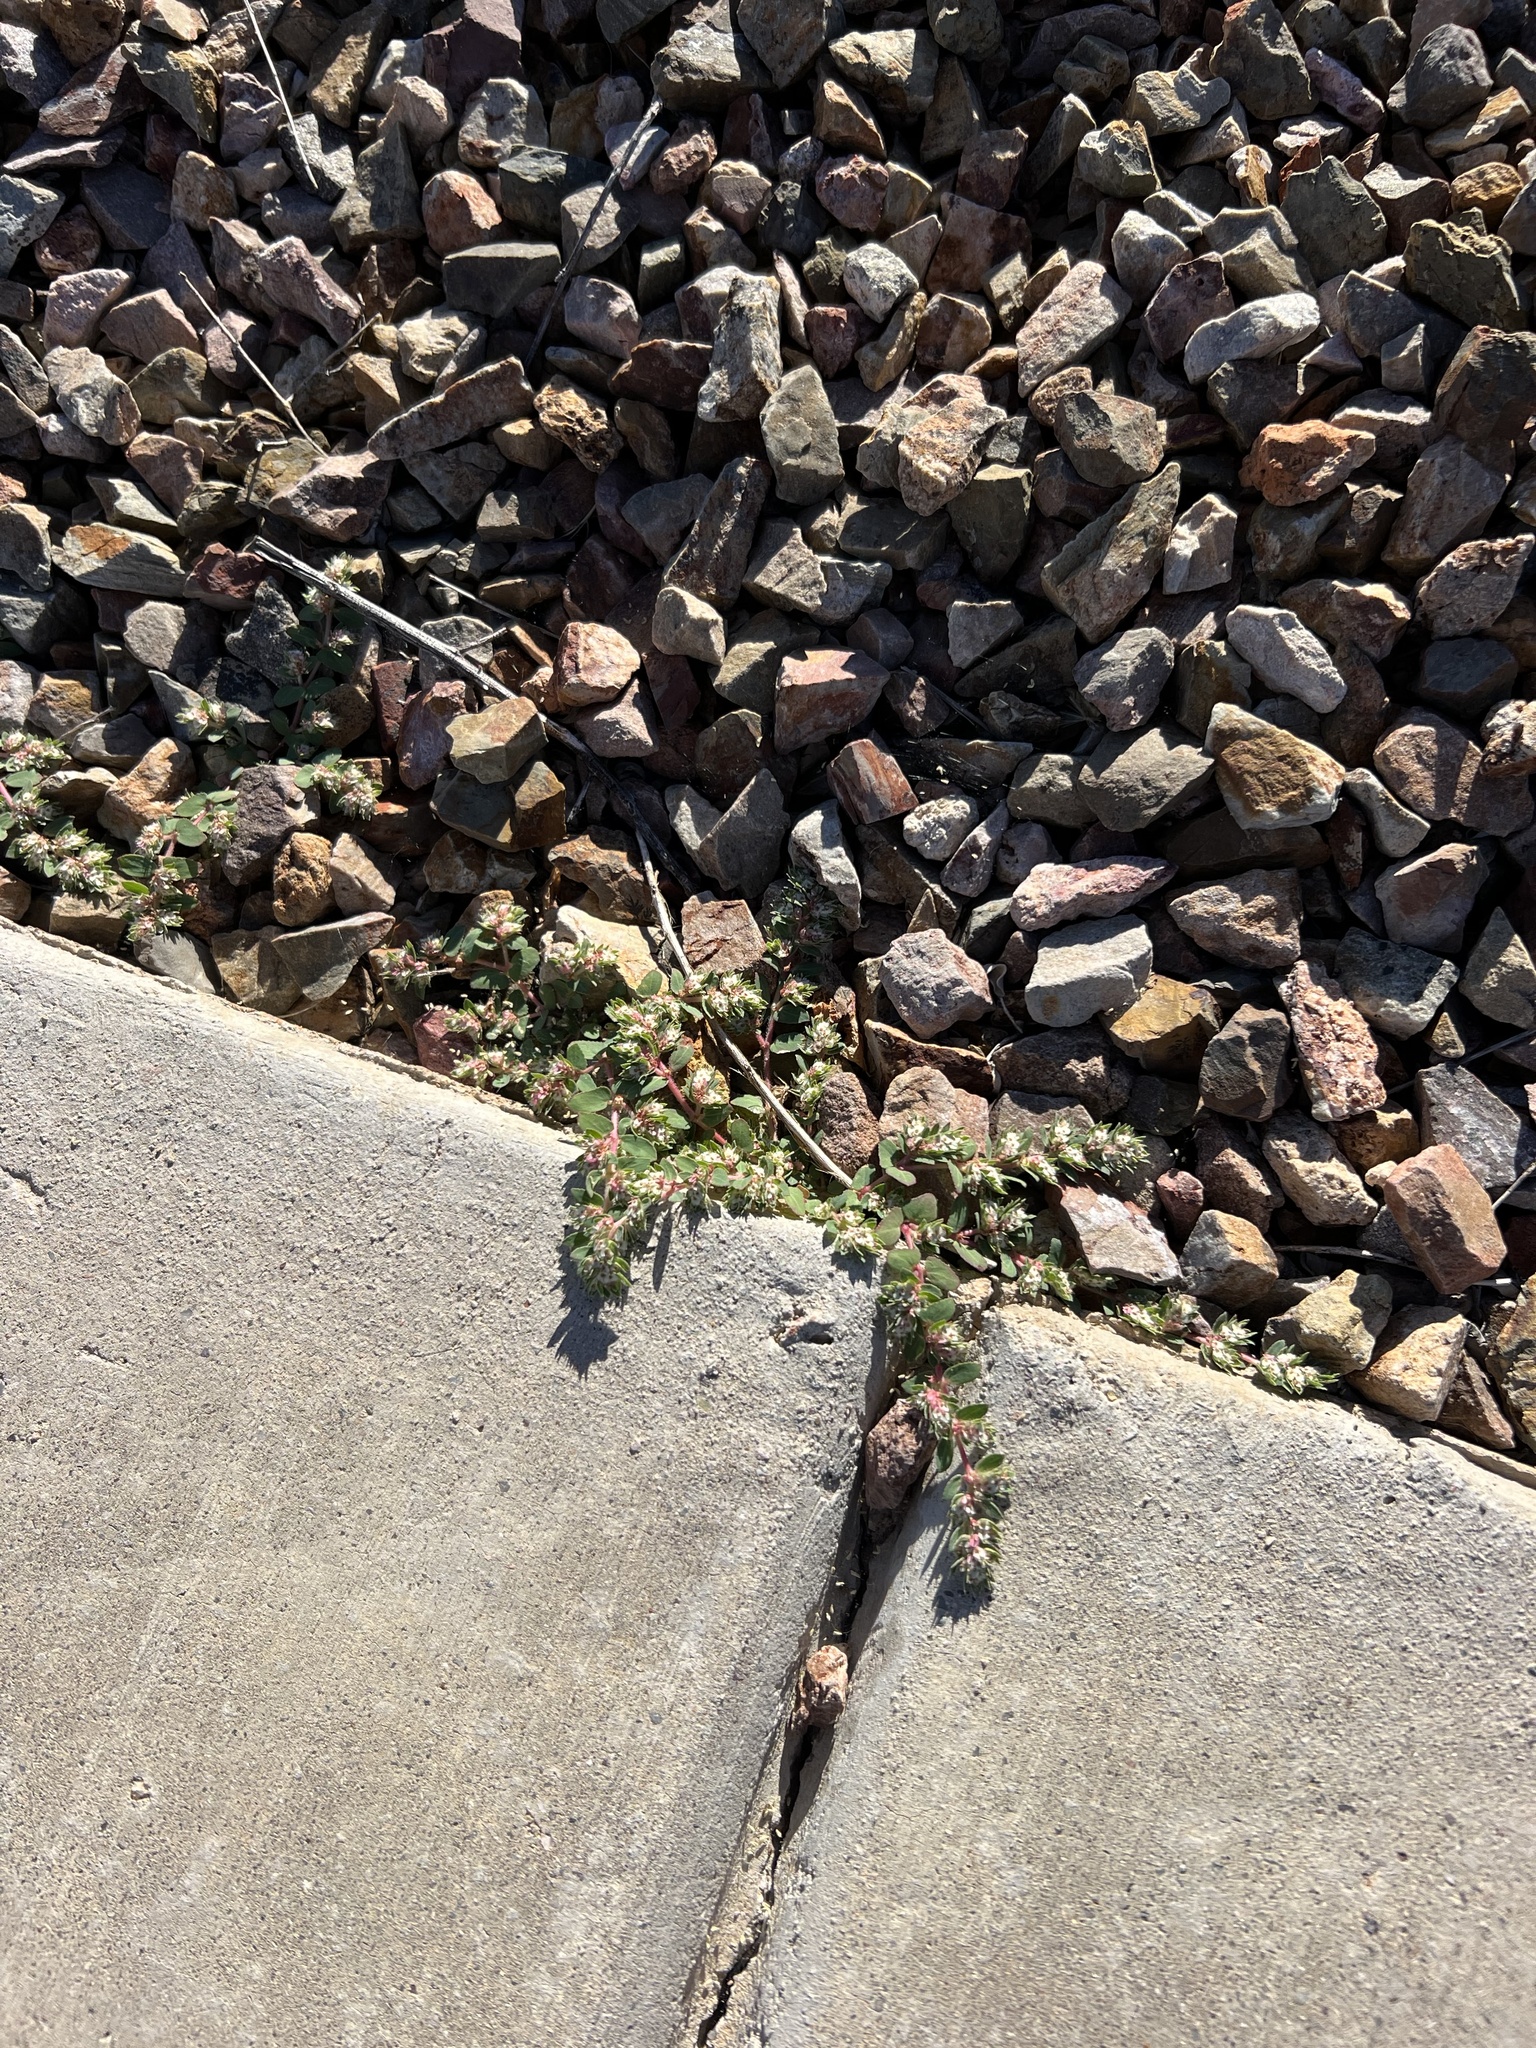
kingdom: Plantae
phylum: Tracheophyta
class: Magnoliopsida
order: Malpighiales
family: Euphorbiaceae
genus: Euphorbia
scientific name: Euphorbia indivisa
